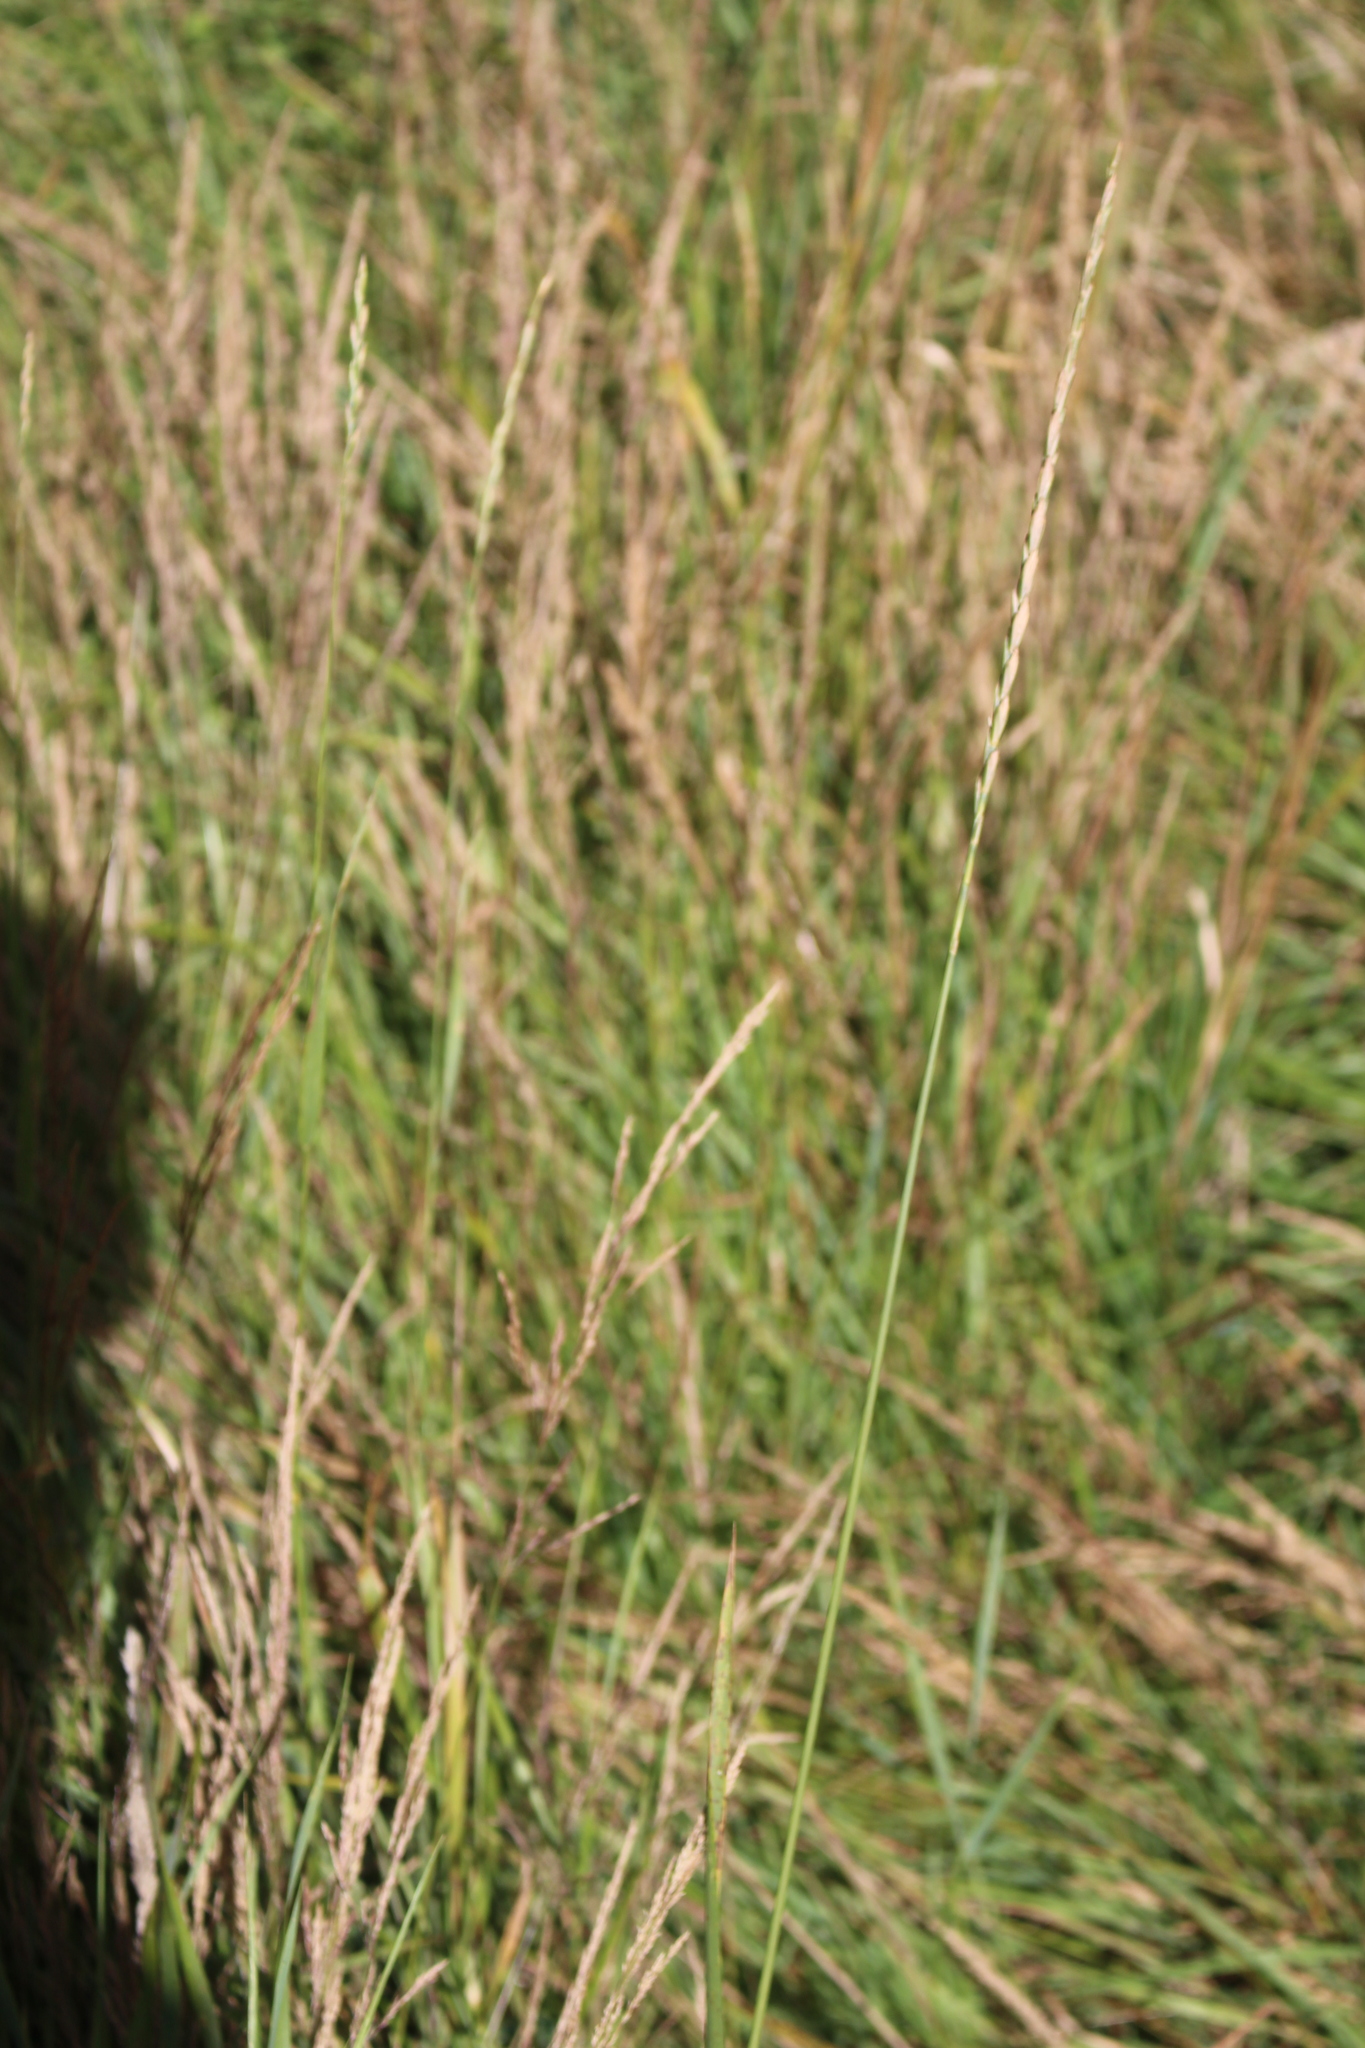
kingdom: Plantae
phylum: Tracheophyta
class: Liliopsida
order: Poales
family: Poaceae
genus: Elymus
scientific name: Elymus repens
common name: Quackgrass
